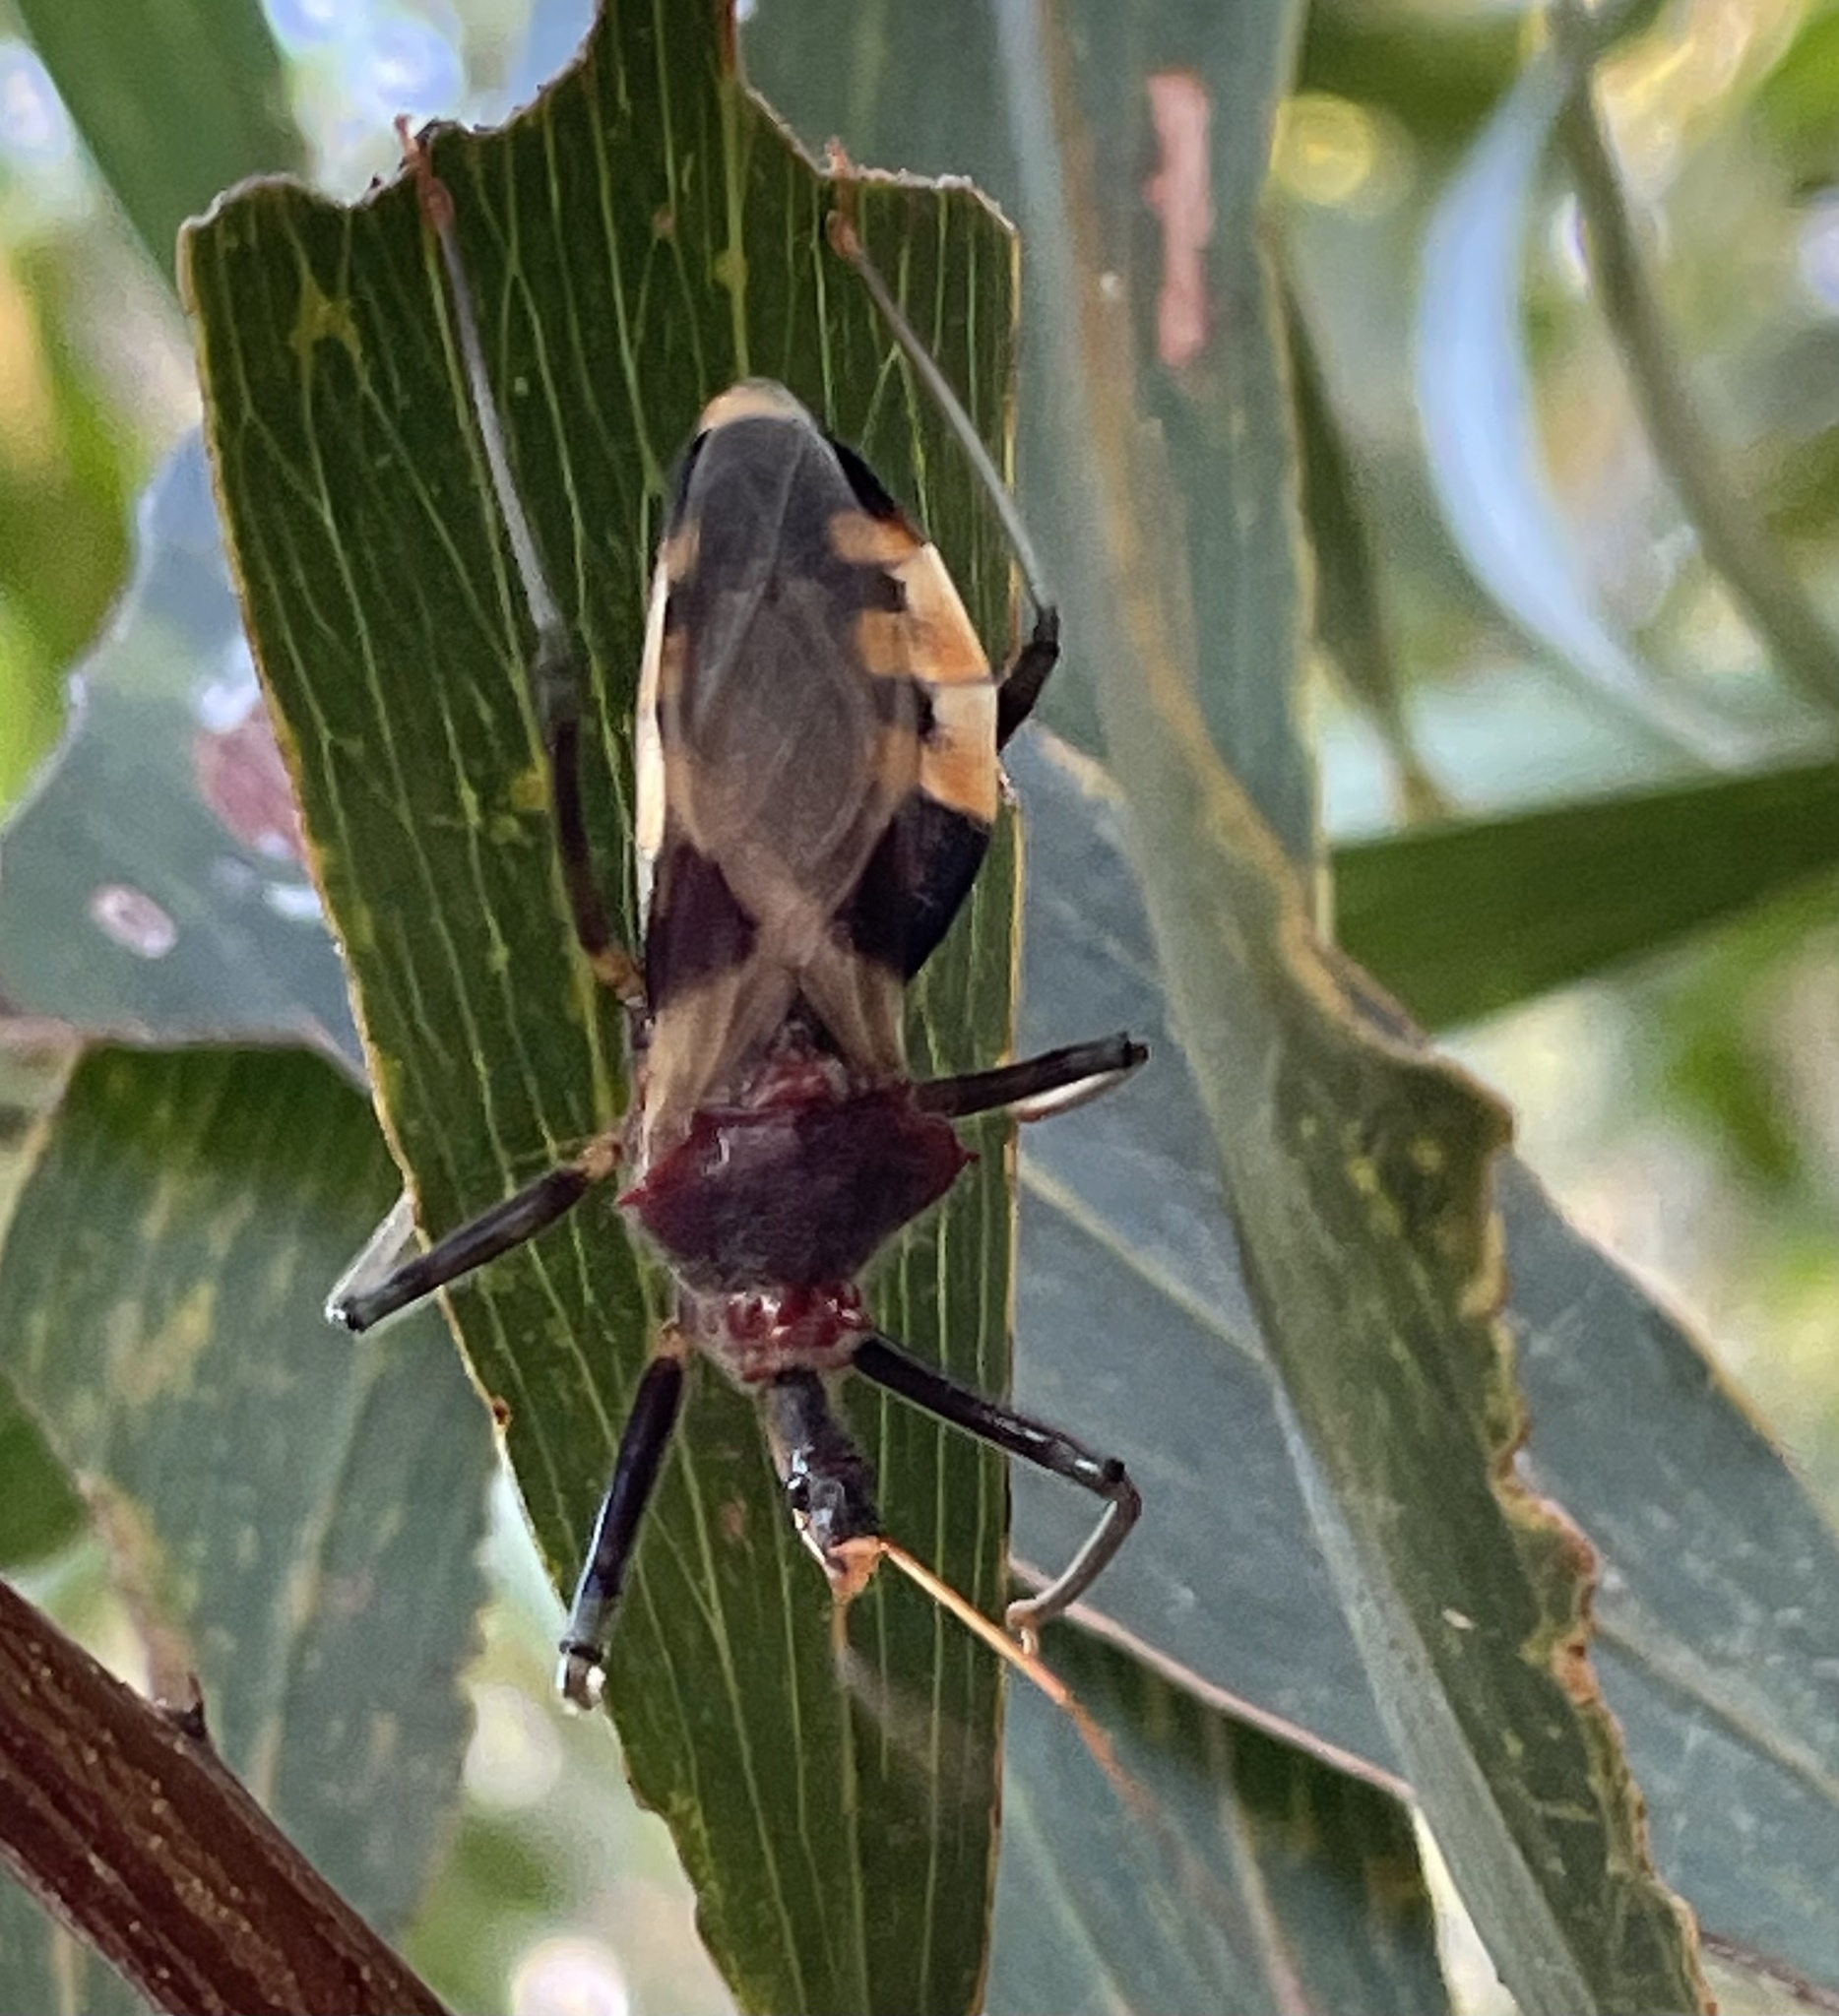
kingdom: Animalia
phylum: Arthropoda
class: Insecta
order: Hemiptera
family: Reduviidae
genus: Pristhesancus
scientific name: Pristhesancus plagipennis
